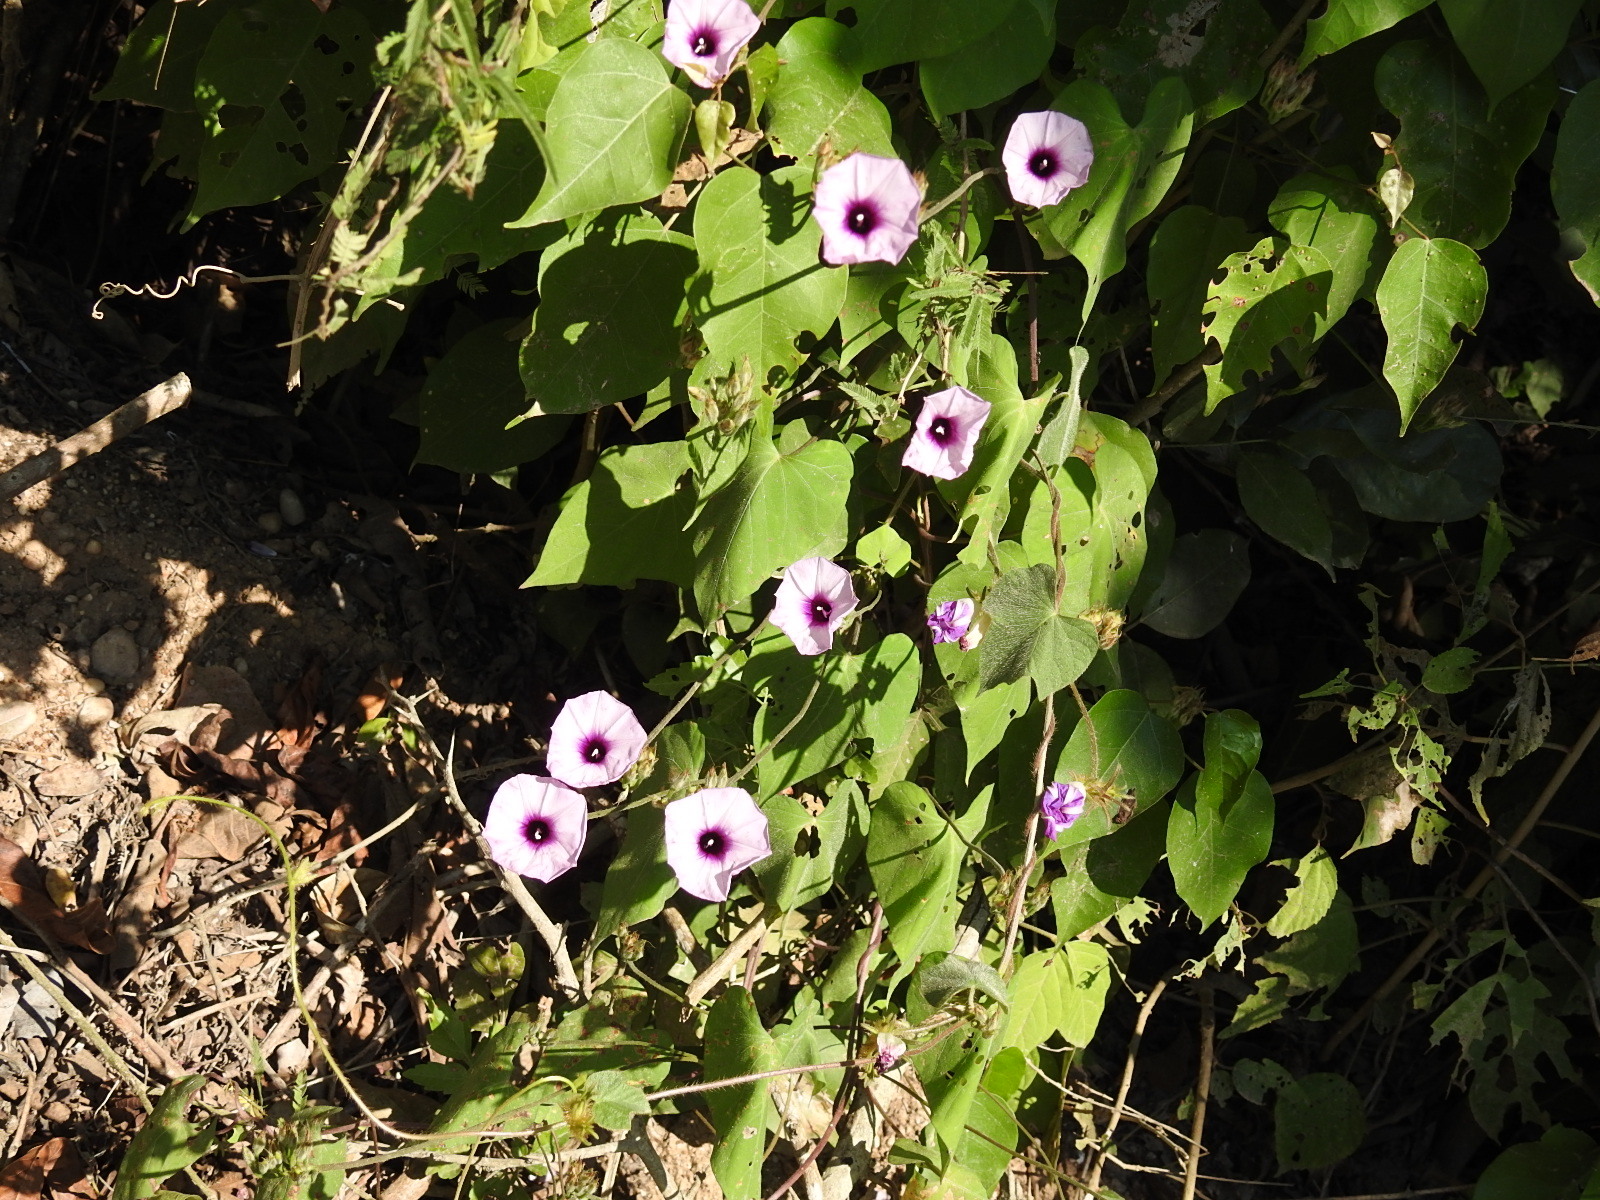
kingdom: Plantae
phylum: Tracheophyta
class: Magnoliopsida
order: Solanales
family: Convolvulaceae
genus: Ipomoea
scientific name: Ipomoea trifida
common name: Cotton morningglory
